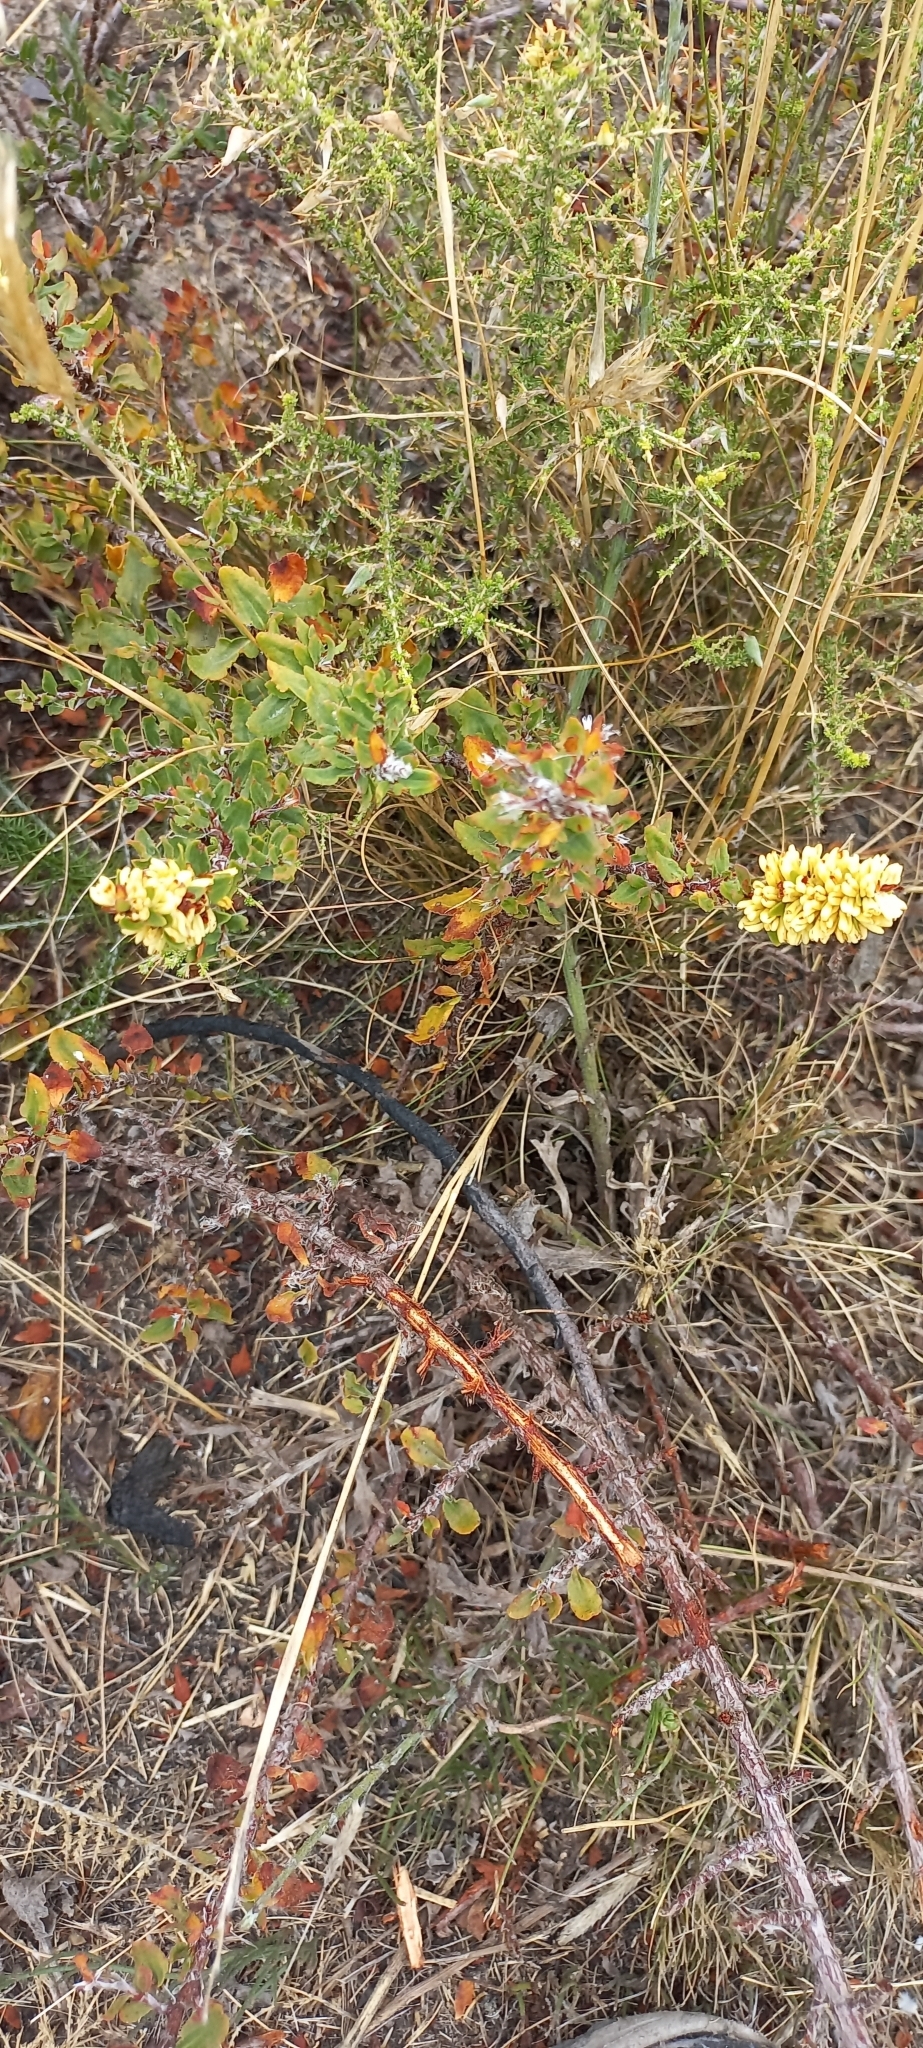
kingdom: Plantae
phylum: Tracheophyta
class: Magnoliopsida
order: Caryophyllales
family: Polygonaceae
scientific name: Polygonaceae
